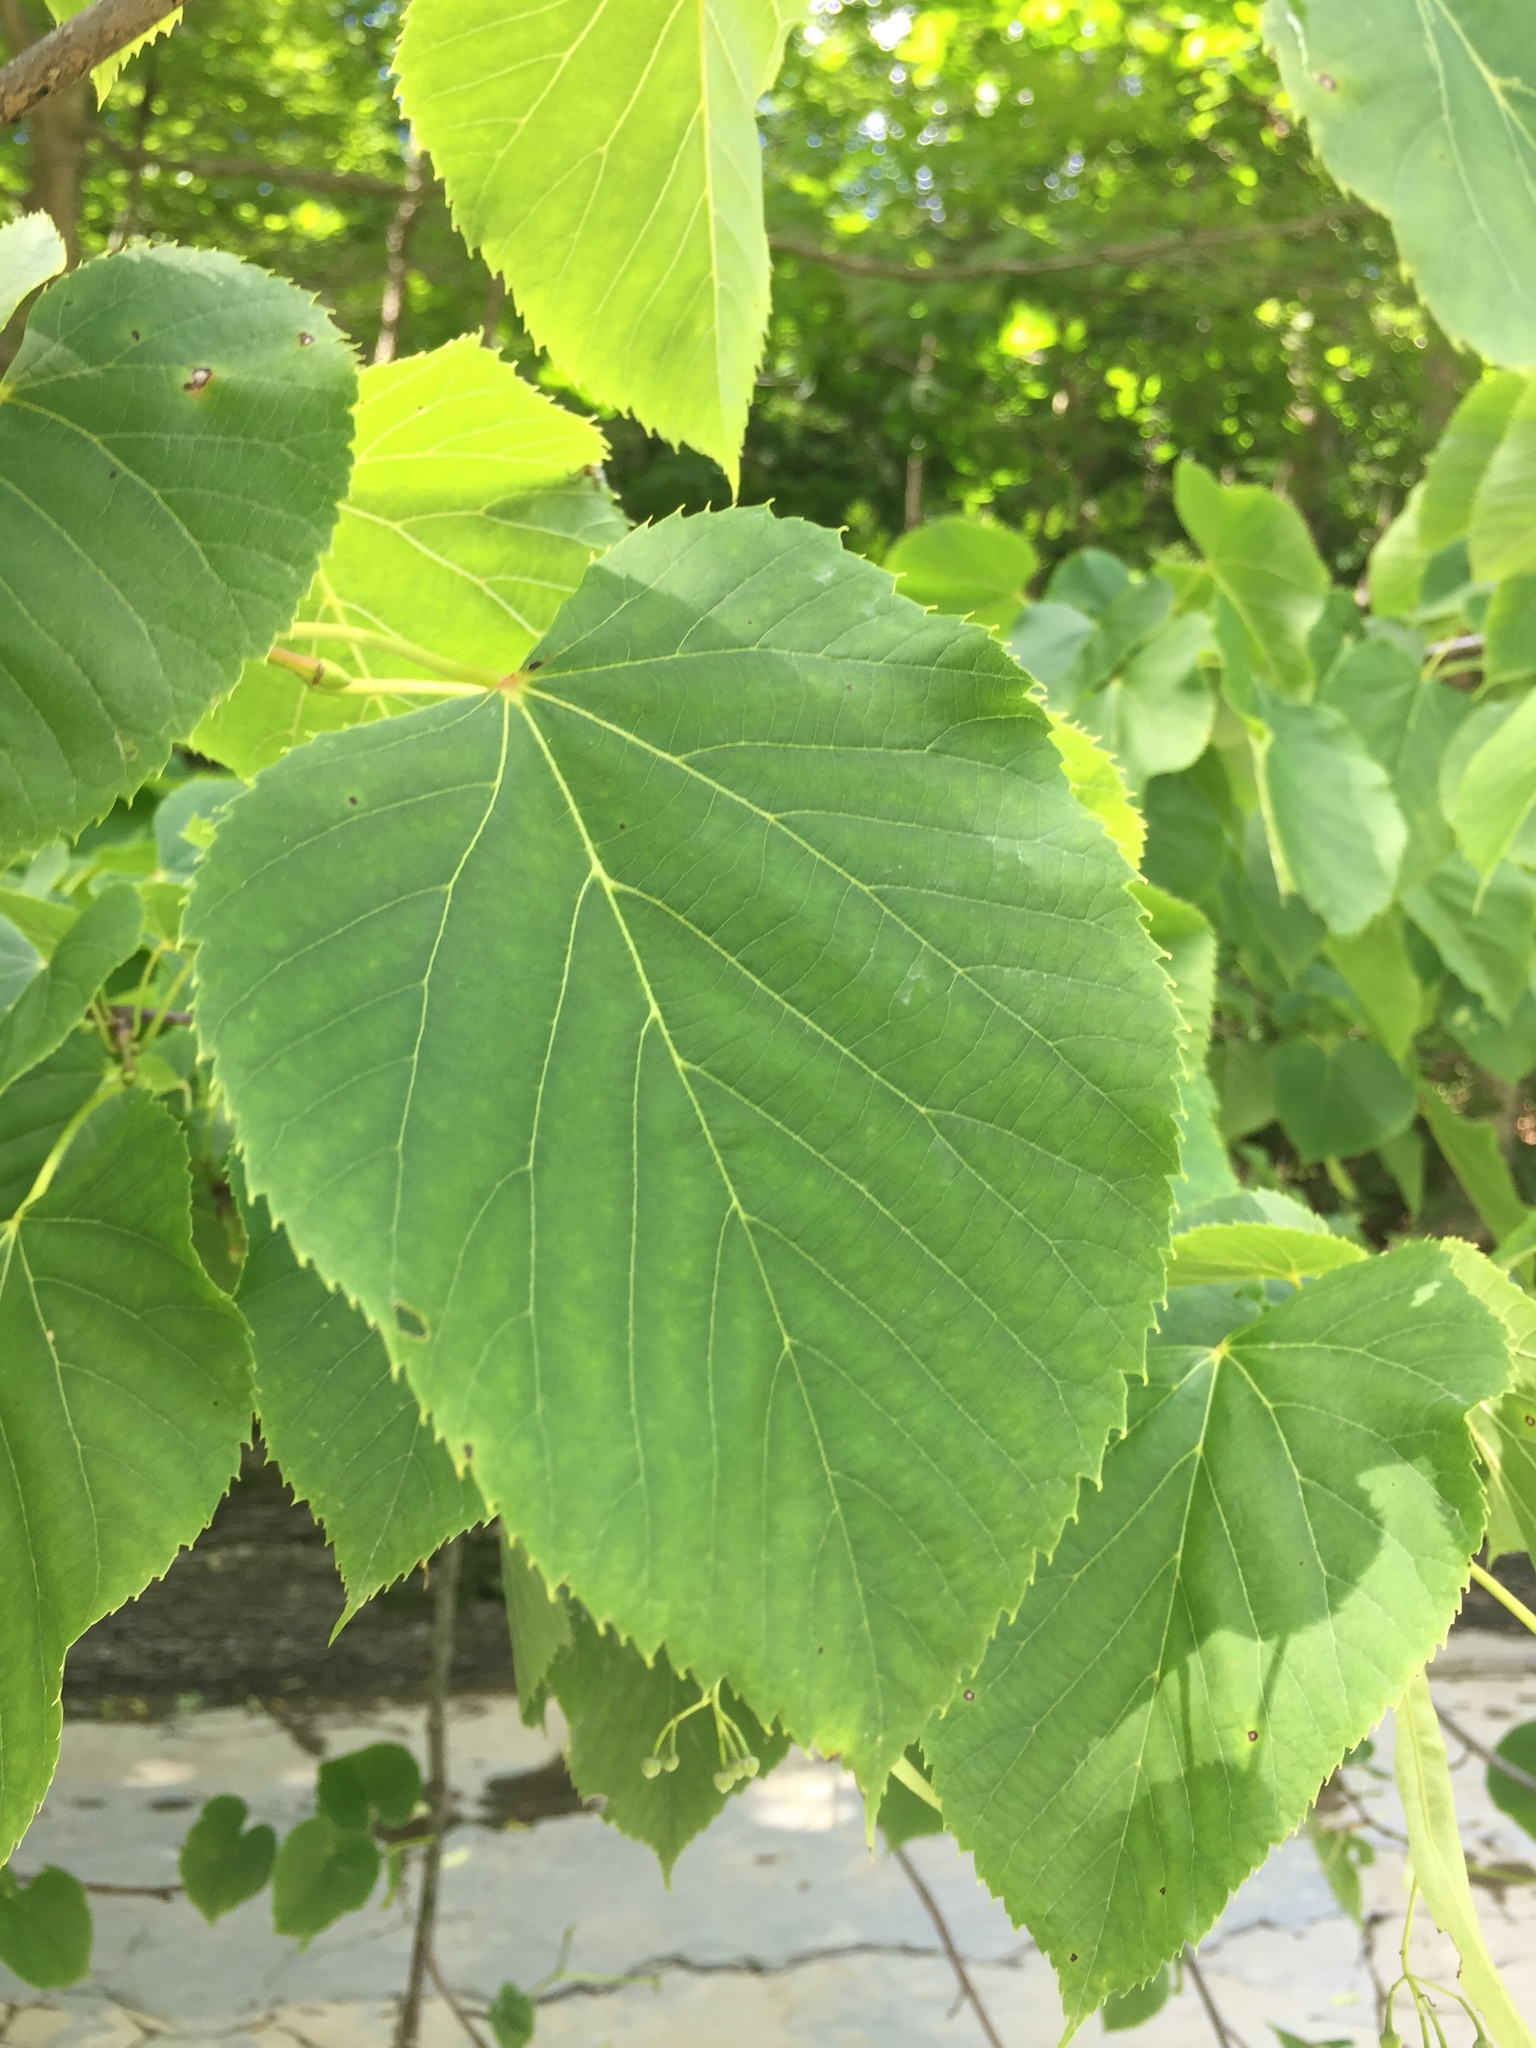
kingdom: Plantae
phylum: Tracheophyta
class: Magnoliopsida
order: Malvales
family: Malvaceae
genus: Tilia
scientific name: Tilia americana
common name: Basswood
